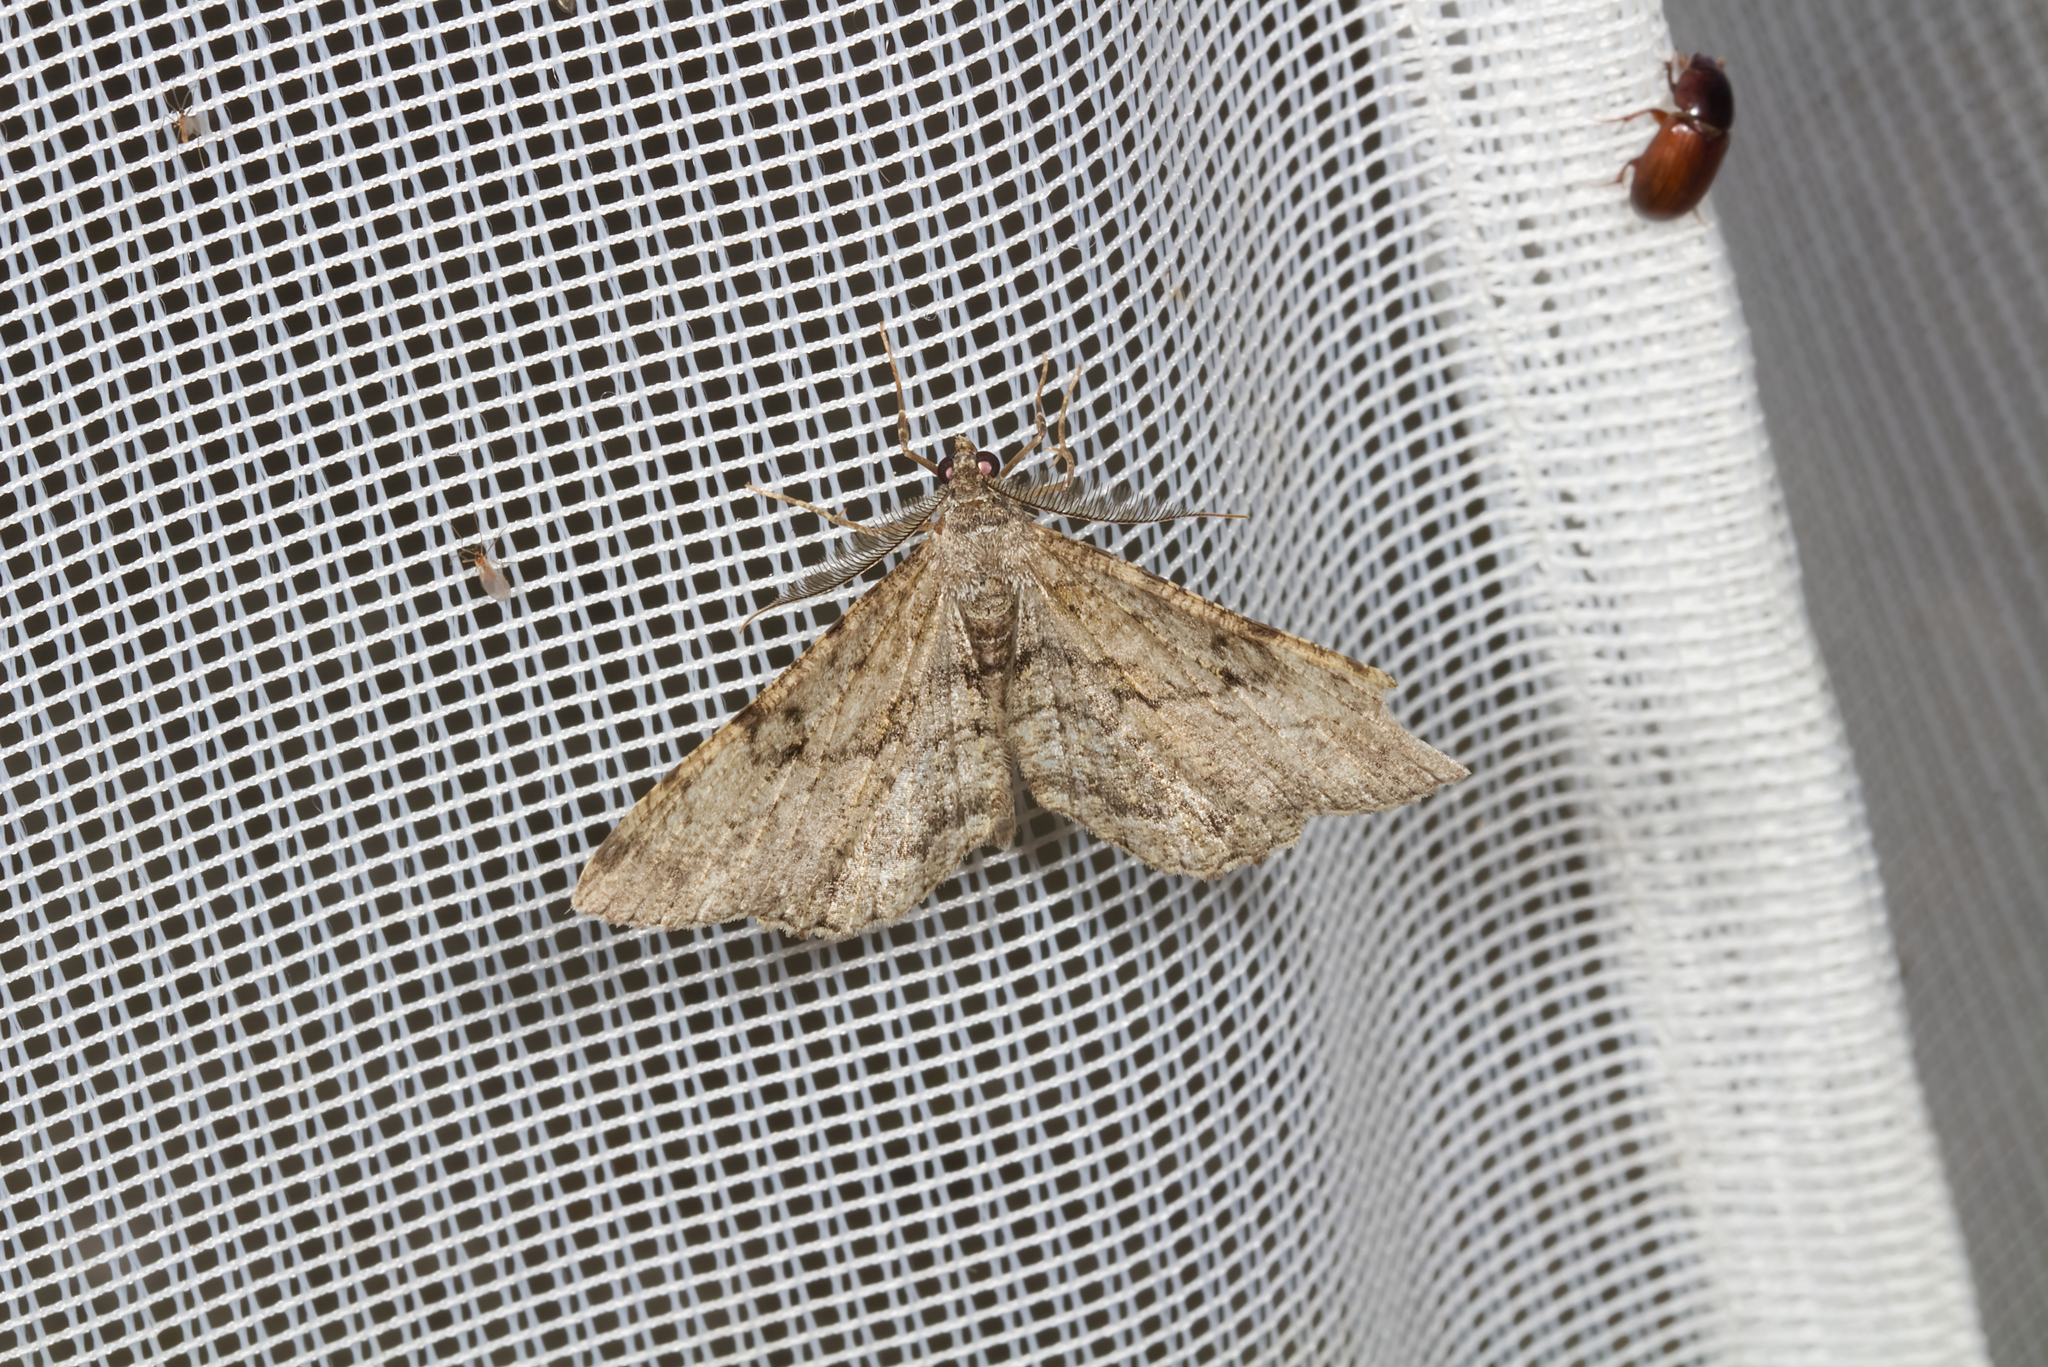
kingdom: Animalia
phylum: Arthropoda
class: Insecta
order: Lepidoptera
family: Geometridae
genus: Peribatodes
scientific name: Peribatodes rhomboidaria
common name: Willow beauty
